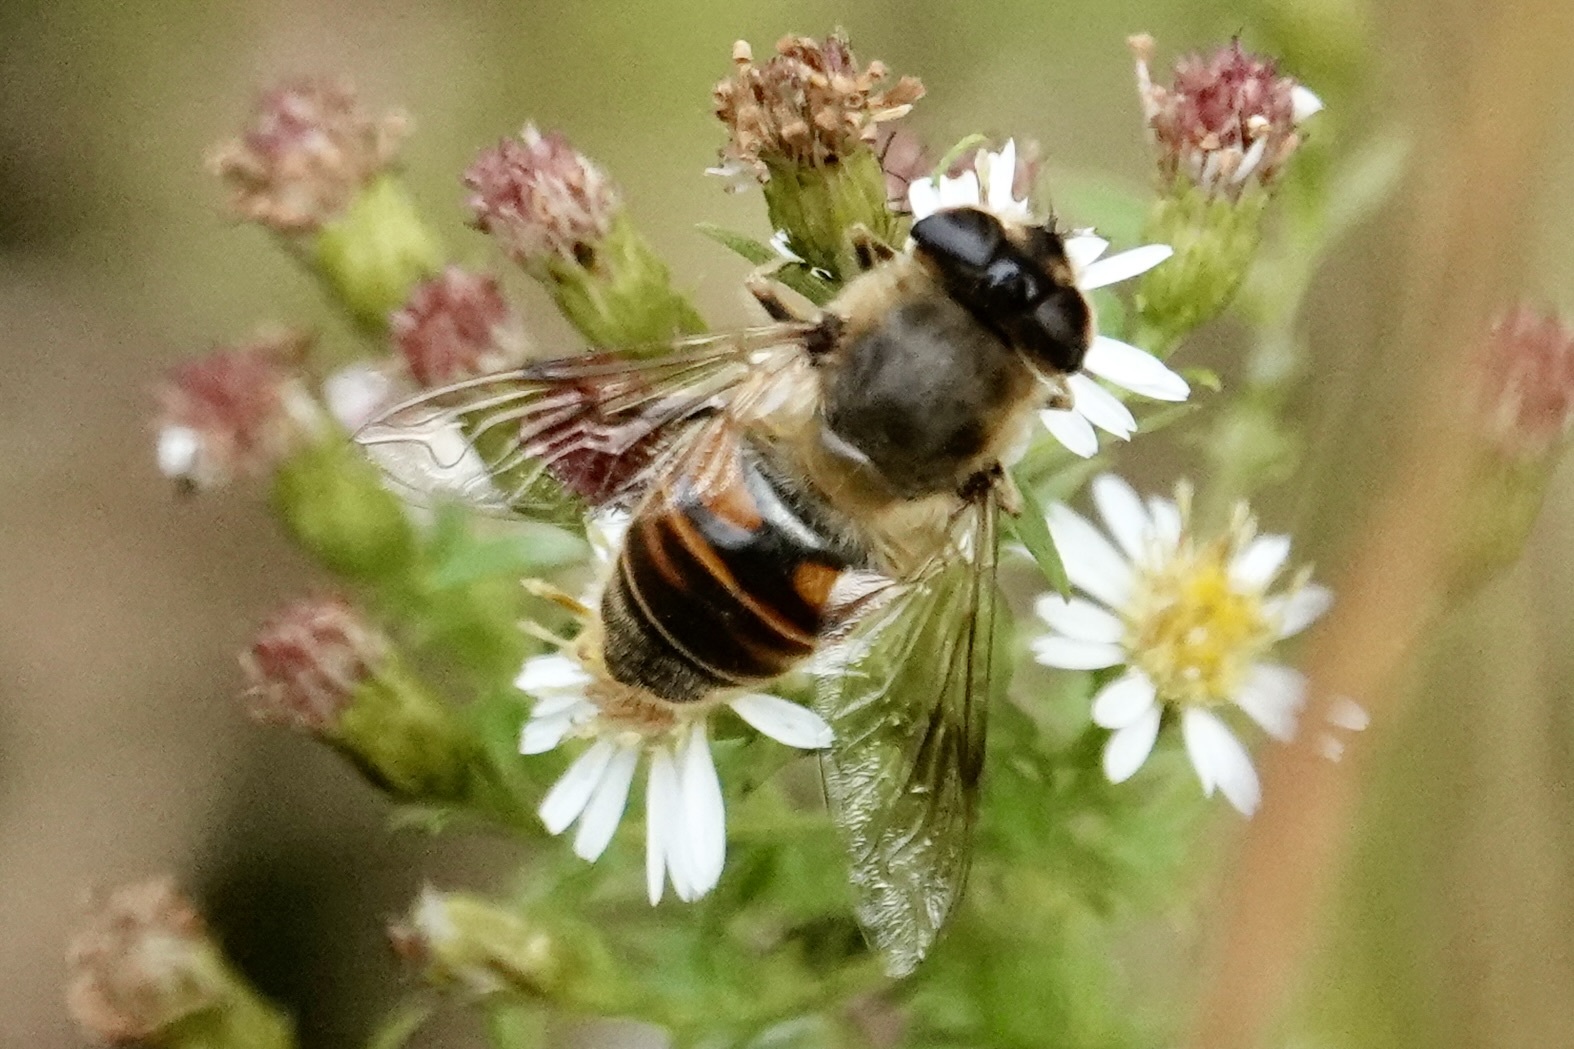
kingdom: Animalia
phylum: Arthropoda
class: Insecta
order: Diptera
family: Syrphidae
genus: Eristalis
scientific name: Eristalis tenax
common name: Drone fly
